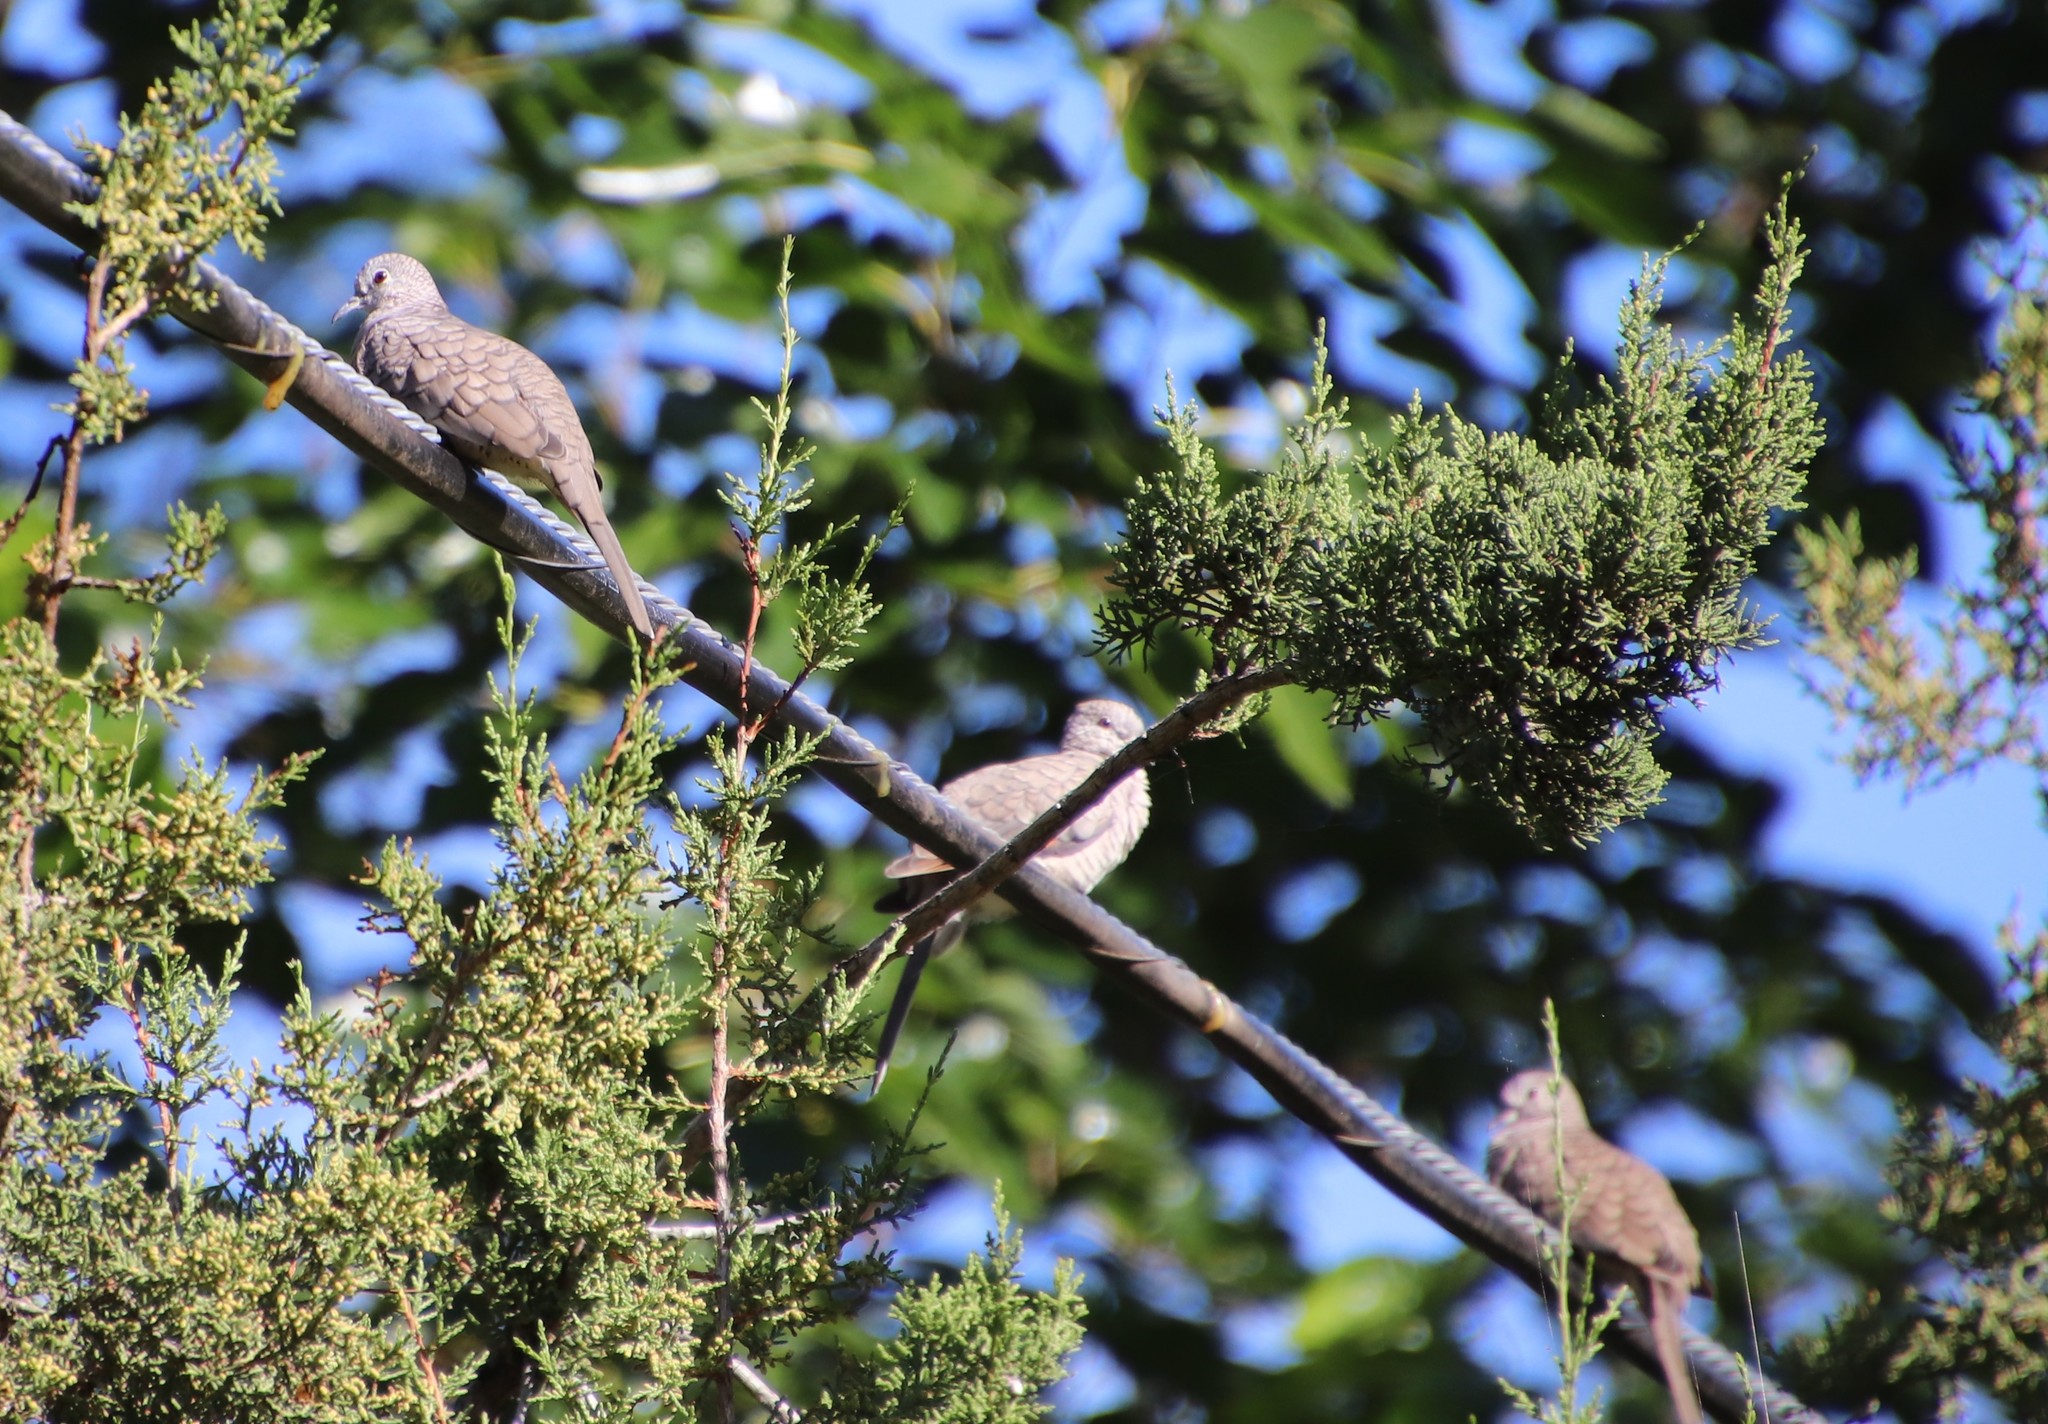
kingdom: Animalia
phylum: Chordata
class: Aves
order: Columbiformes
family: Columbidae
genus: Columbina
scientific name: Columbina inca
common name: Inca dove
